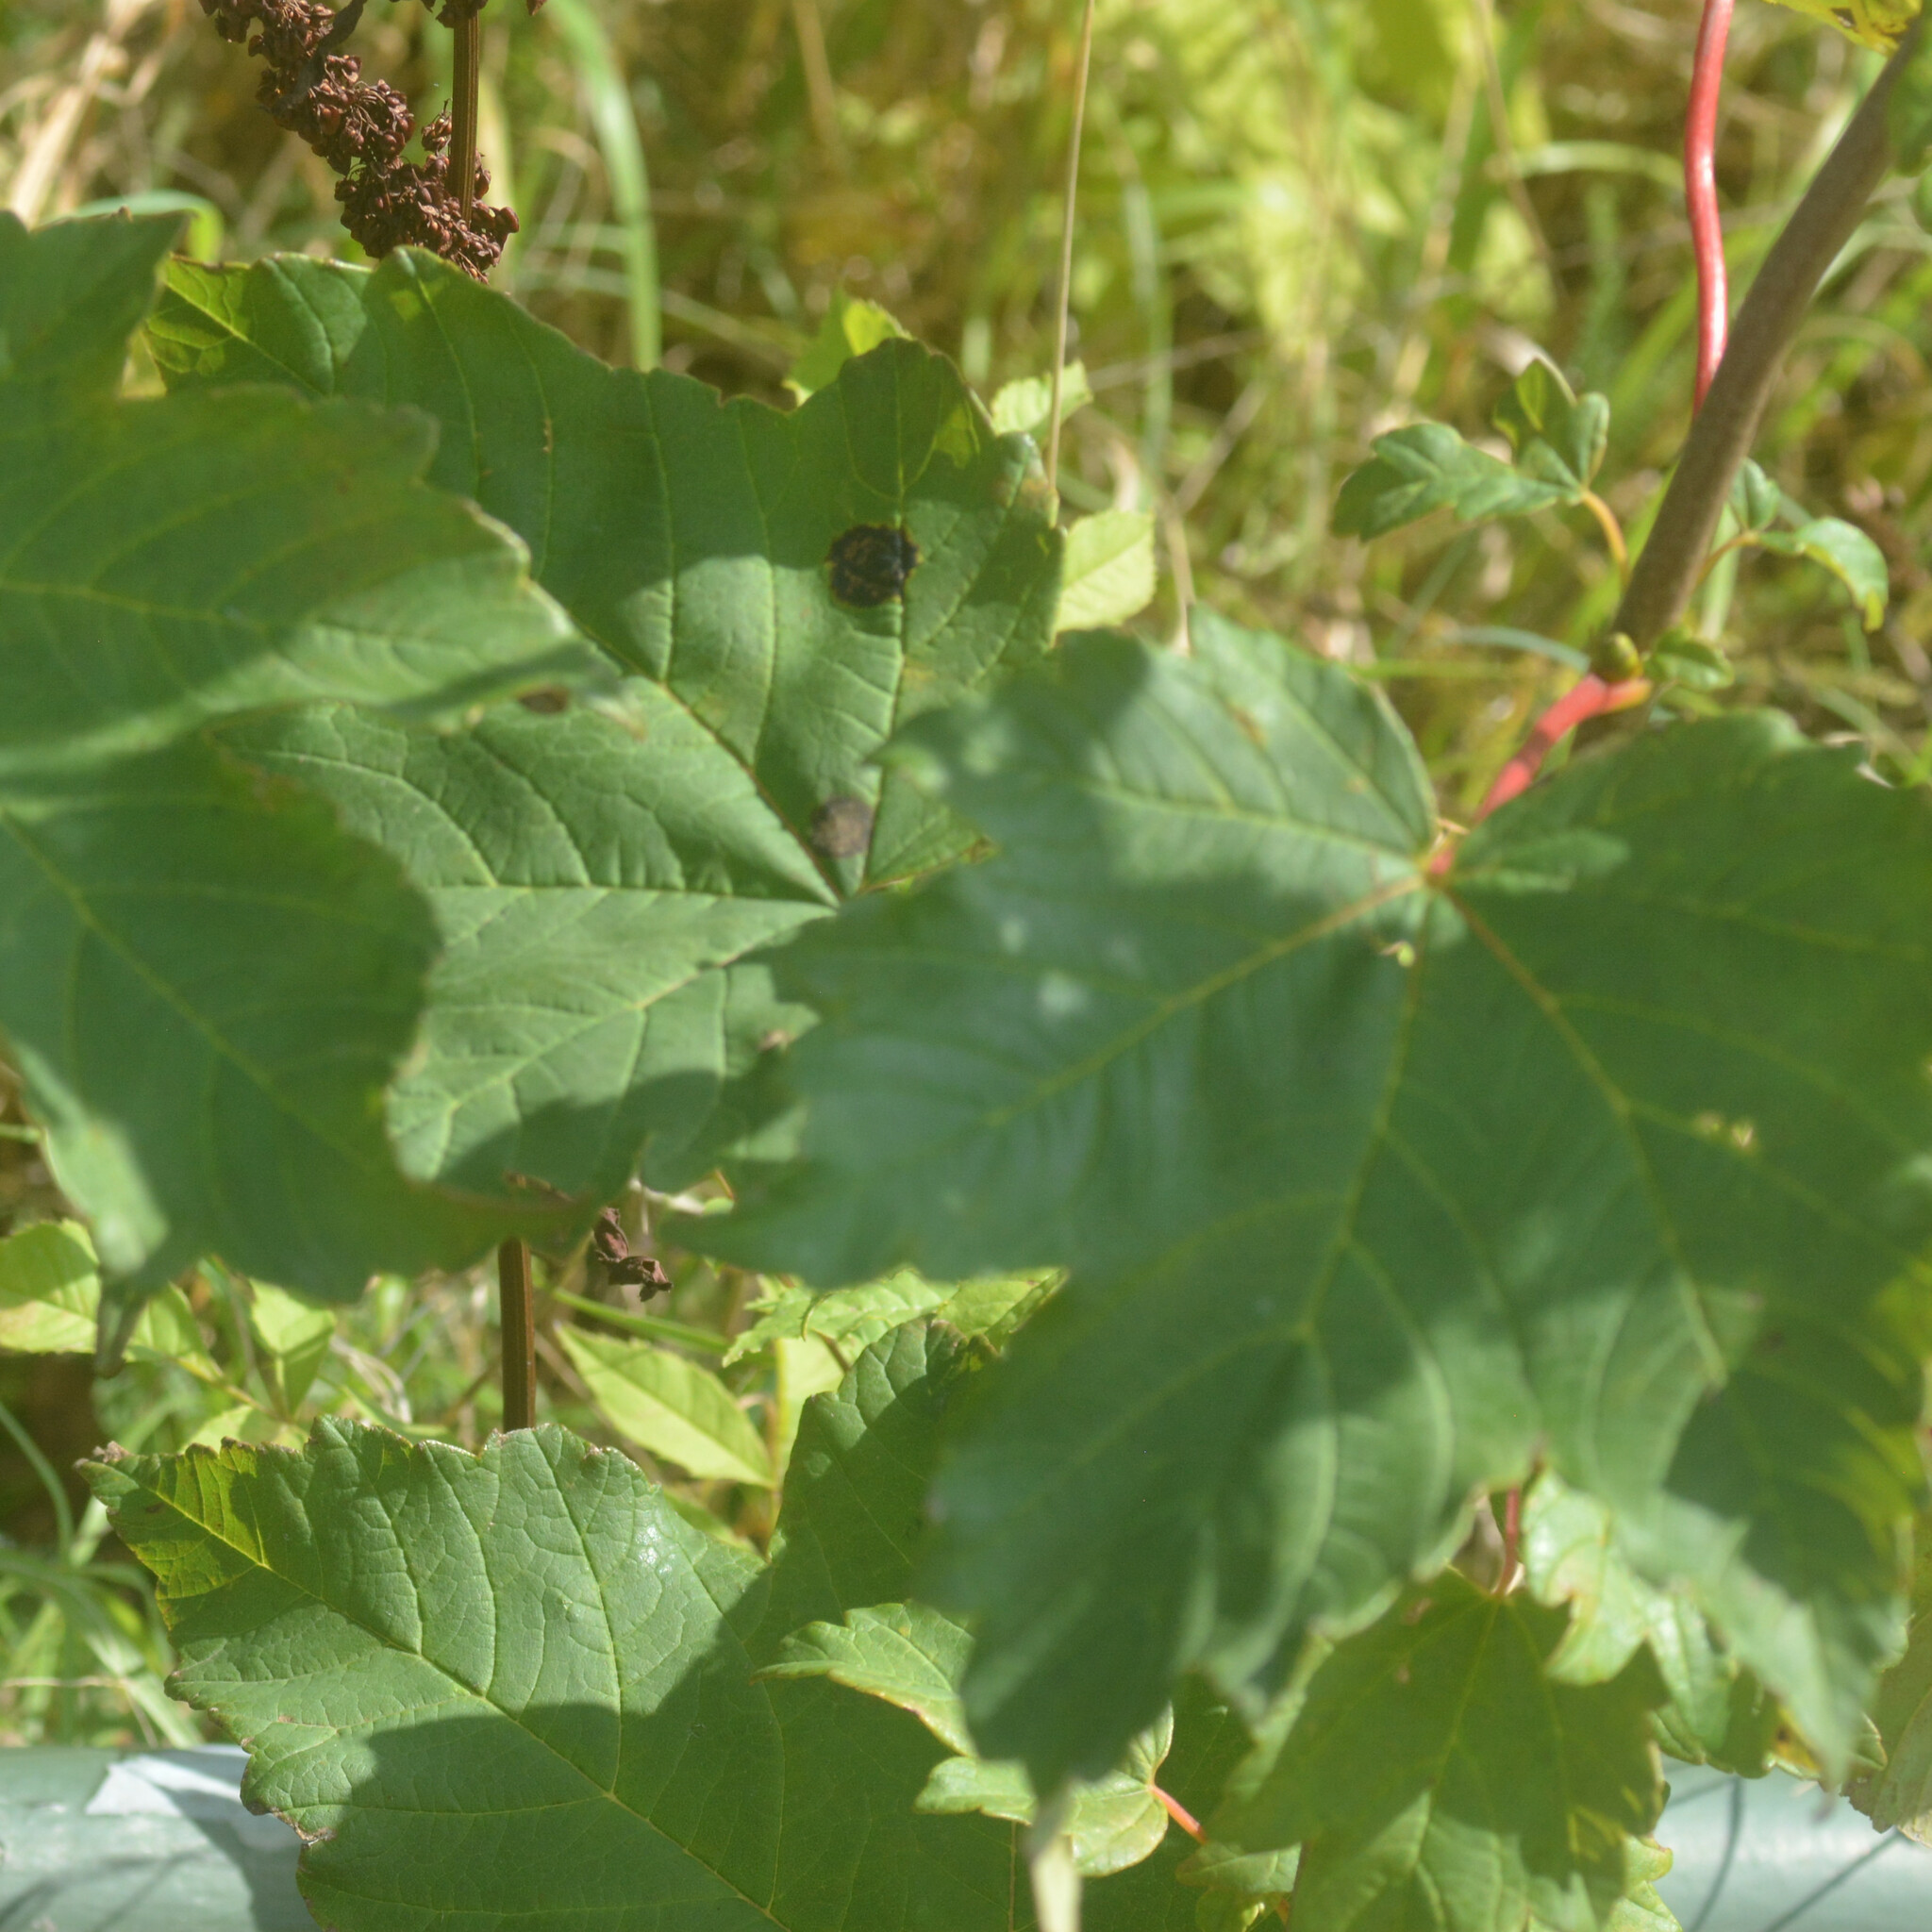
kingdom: Fungi
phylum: Ascomycota
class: Leotiomycetes
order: Rhytismatales
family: Rhytismataceae
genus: Rhytisma
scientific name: Rhytisma acerinum
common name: European tar spot
